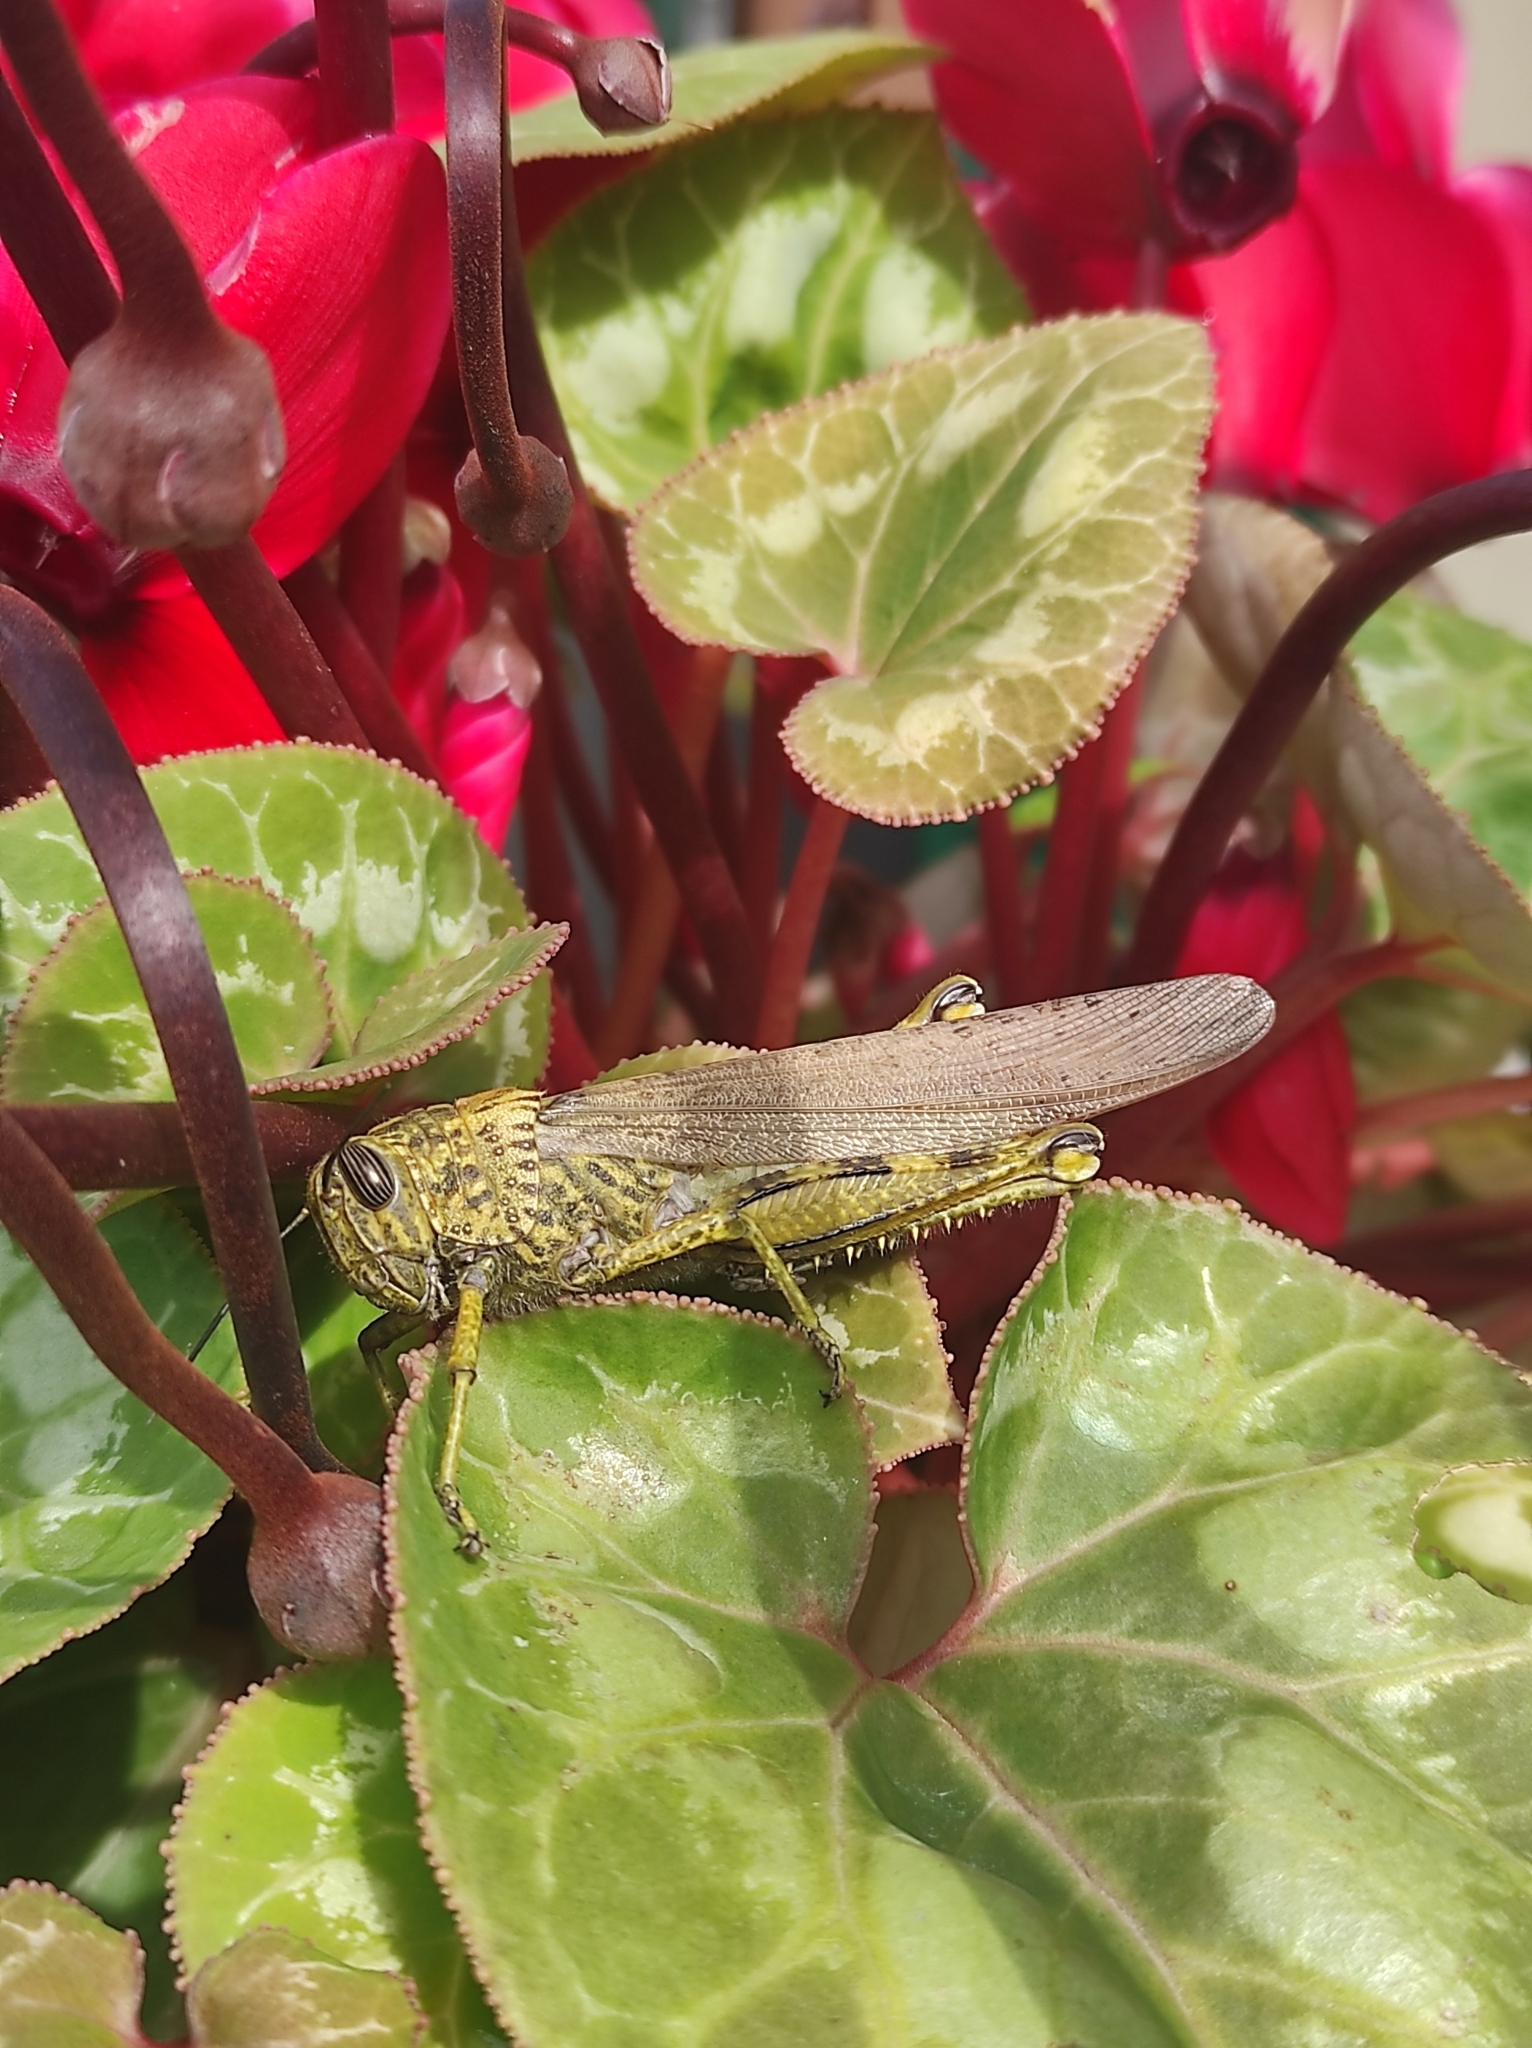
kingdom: Animalia
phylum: Arthropoda
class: Insecta
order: Orthoptera
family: Acrididae
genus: Anacridium
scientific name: Anacridium aegyptium
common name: Egyptian grasshopper
